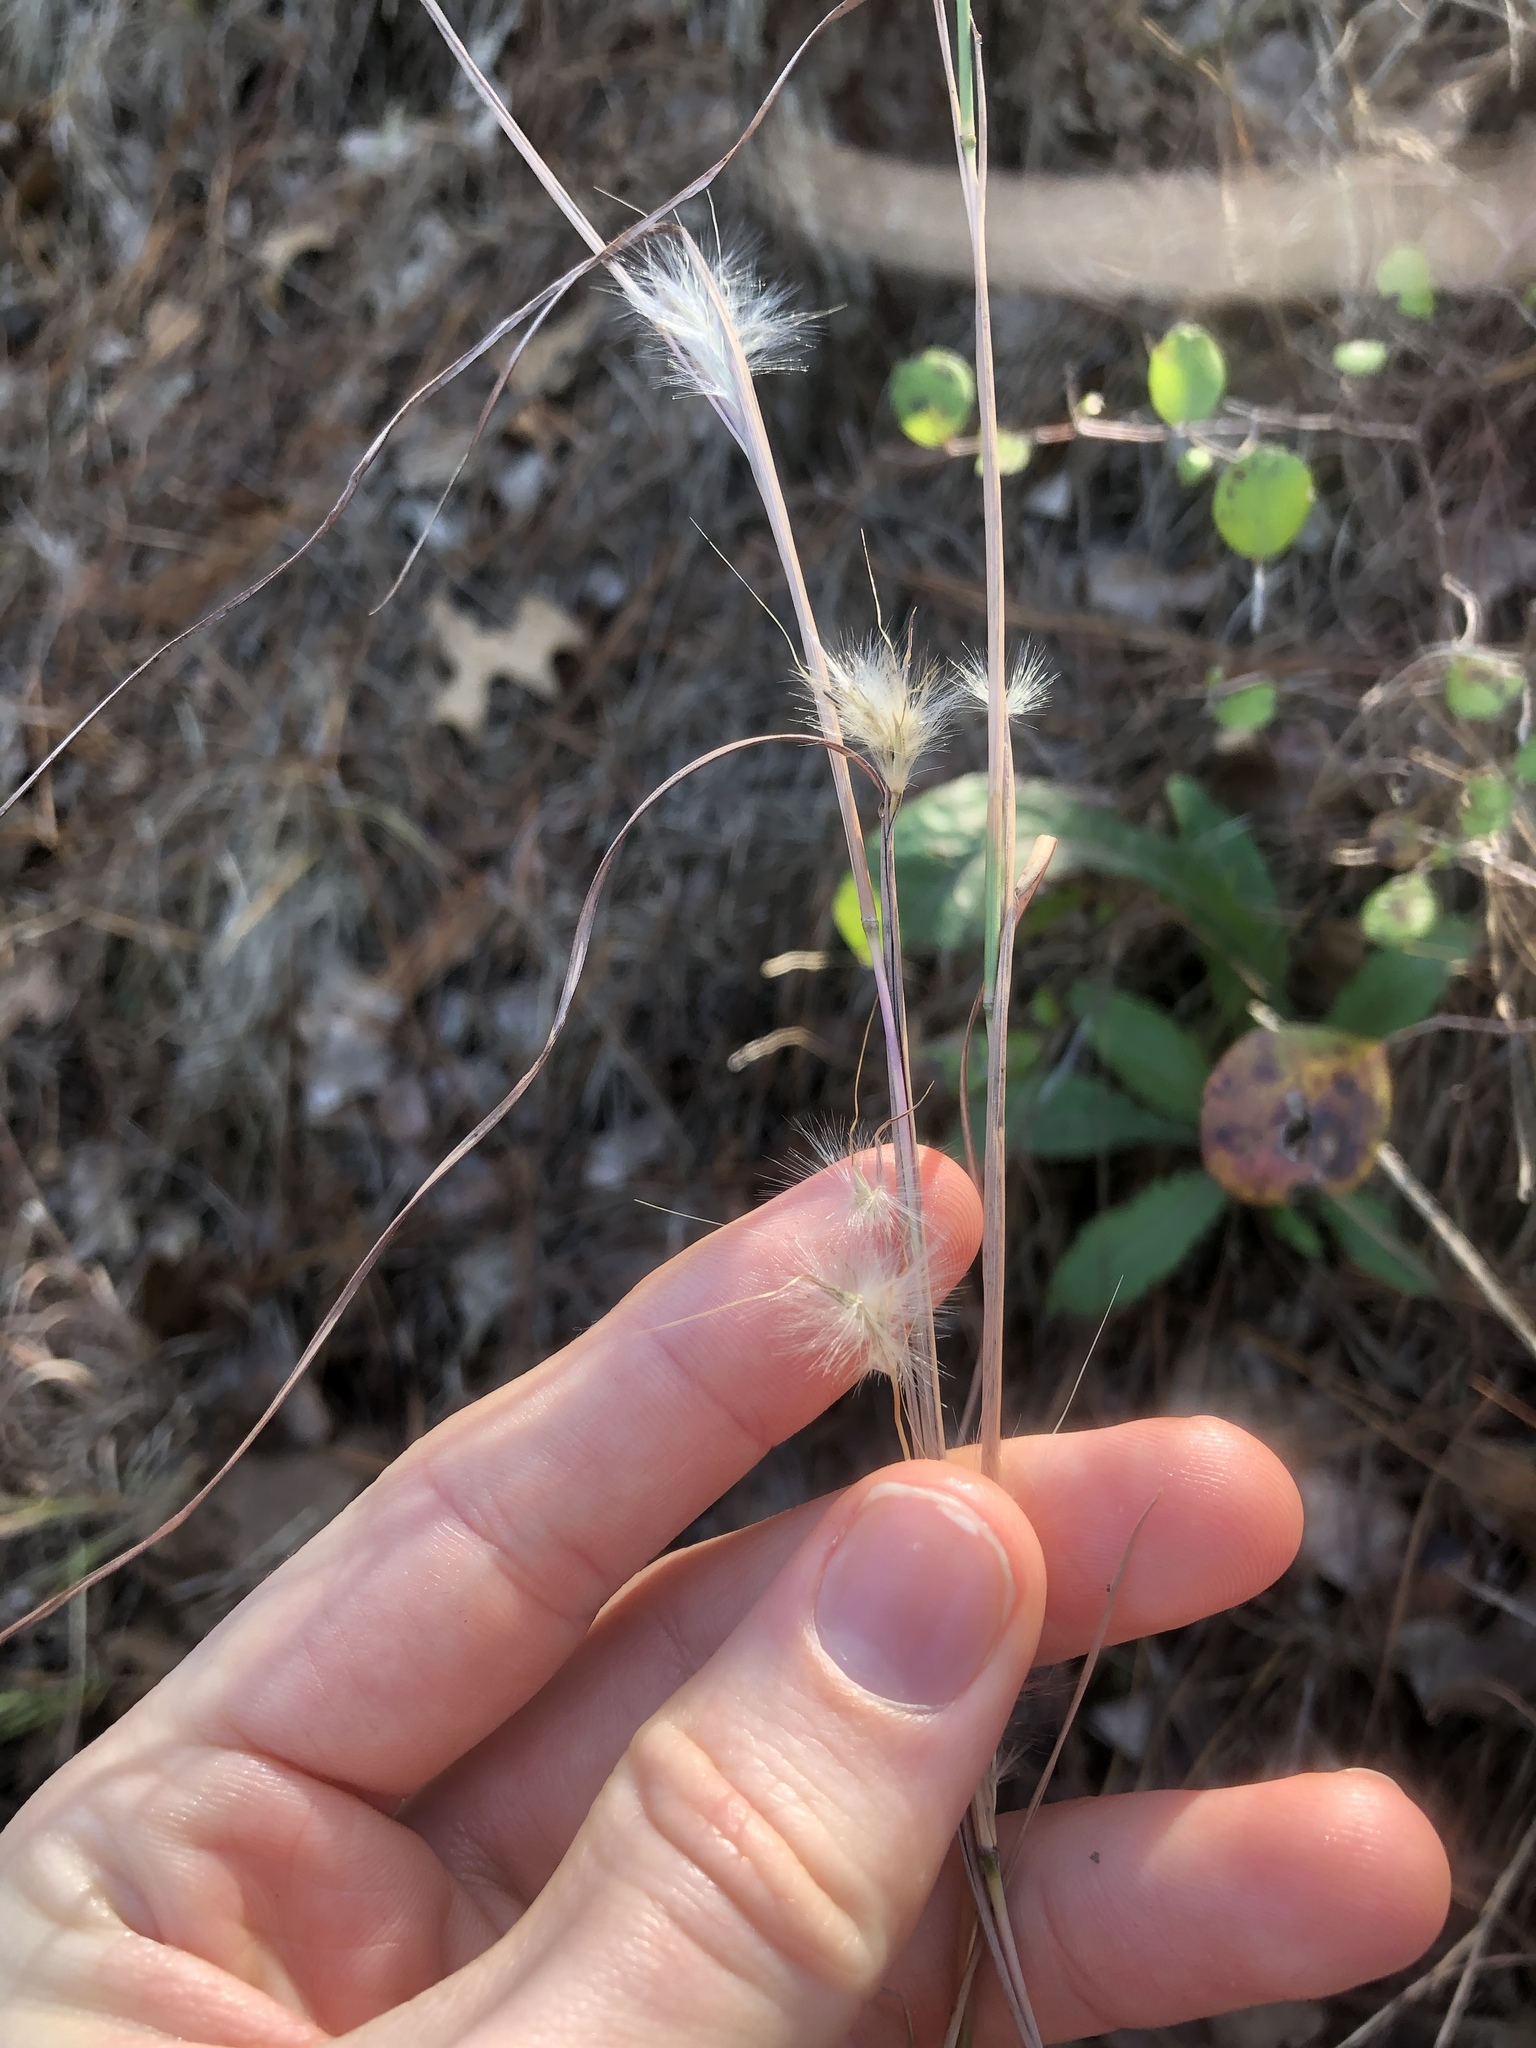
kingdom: Plantae
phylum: Tracheophyta
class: Liliopsida
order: Poales
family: Poaceae
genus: Andropogon
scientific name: Andropogon ternarius
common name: Split bluestem
